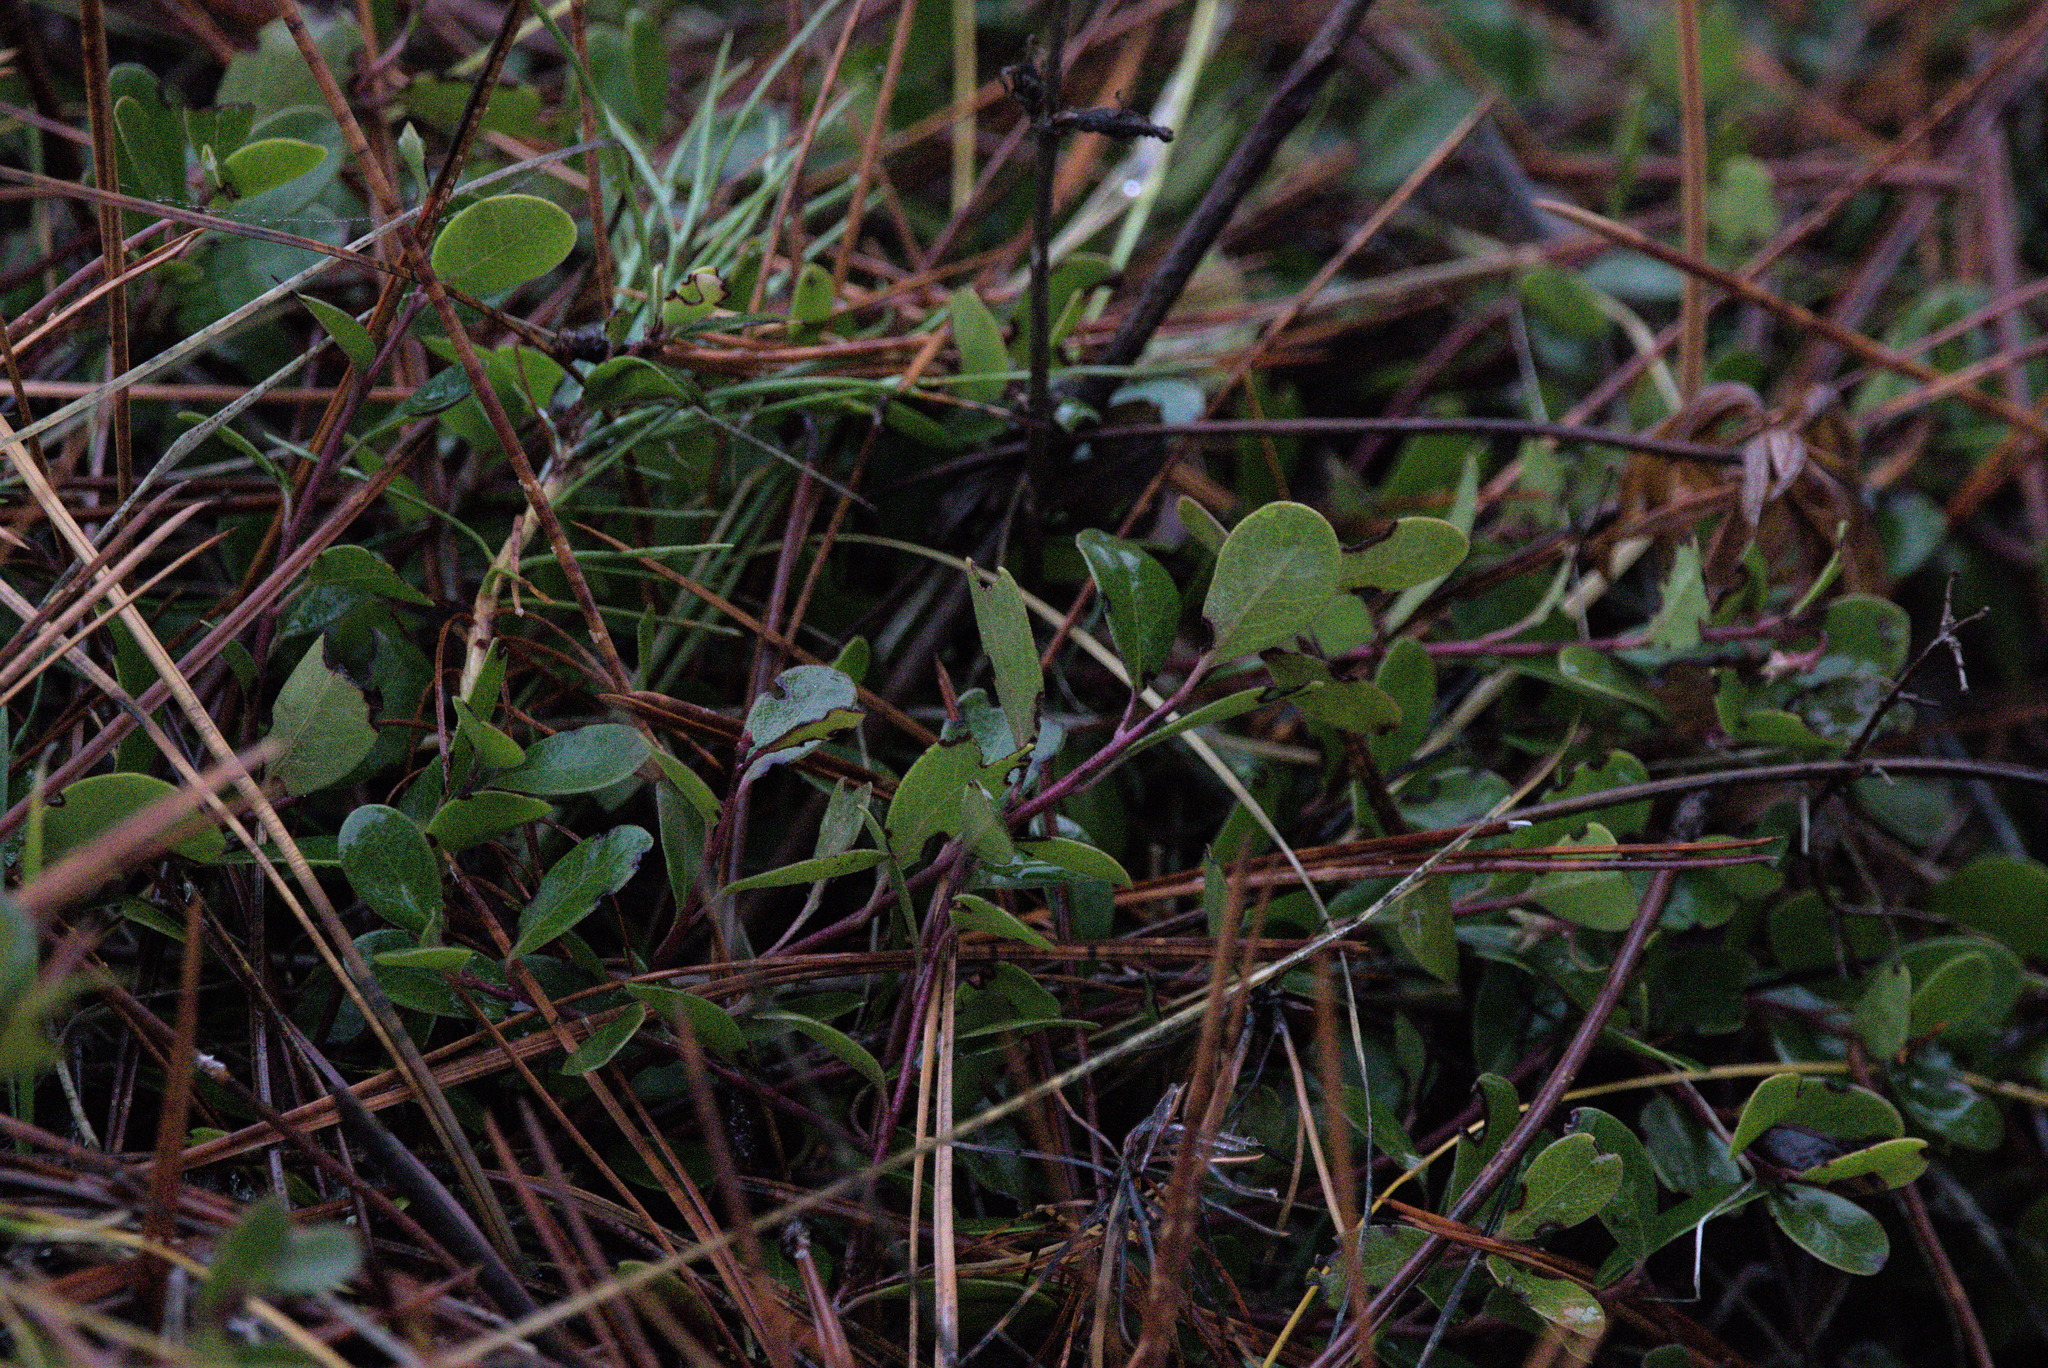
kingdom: Plantae
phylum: Tracheophyta
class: Magnoliopsida
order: Ericales
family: Ericaceae
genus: Arctostaphylos
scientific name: Arctostaphylos uva-ursi
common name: Bearberry
